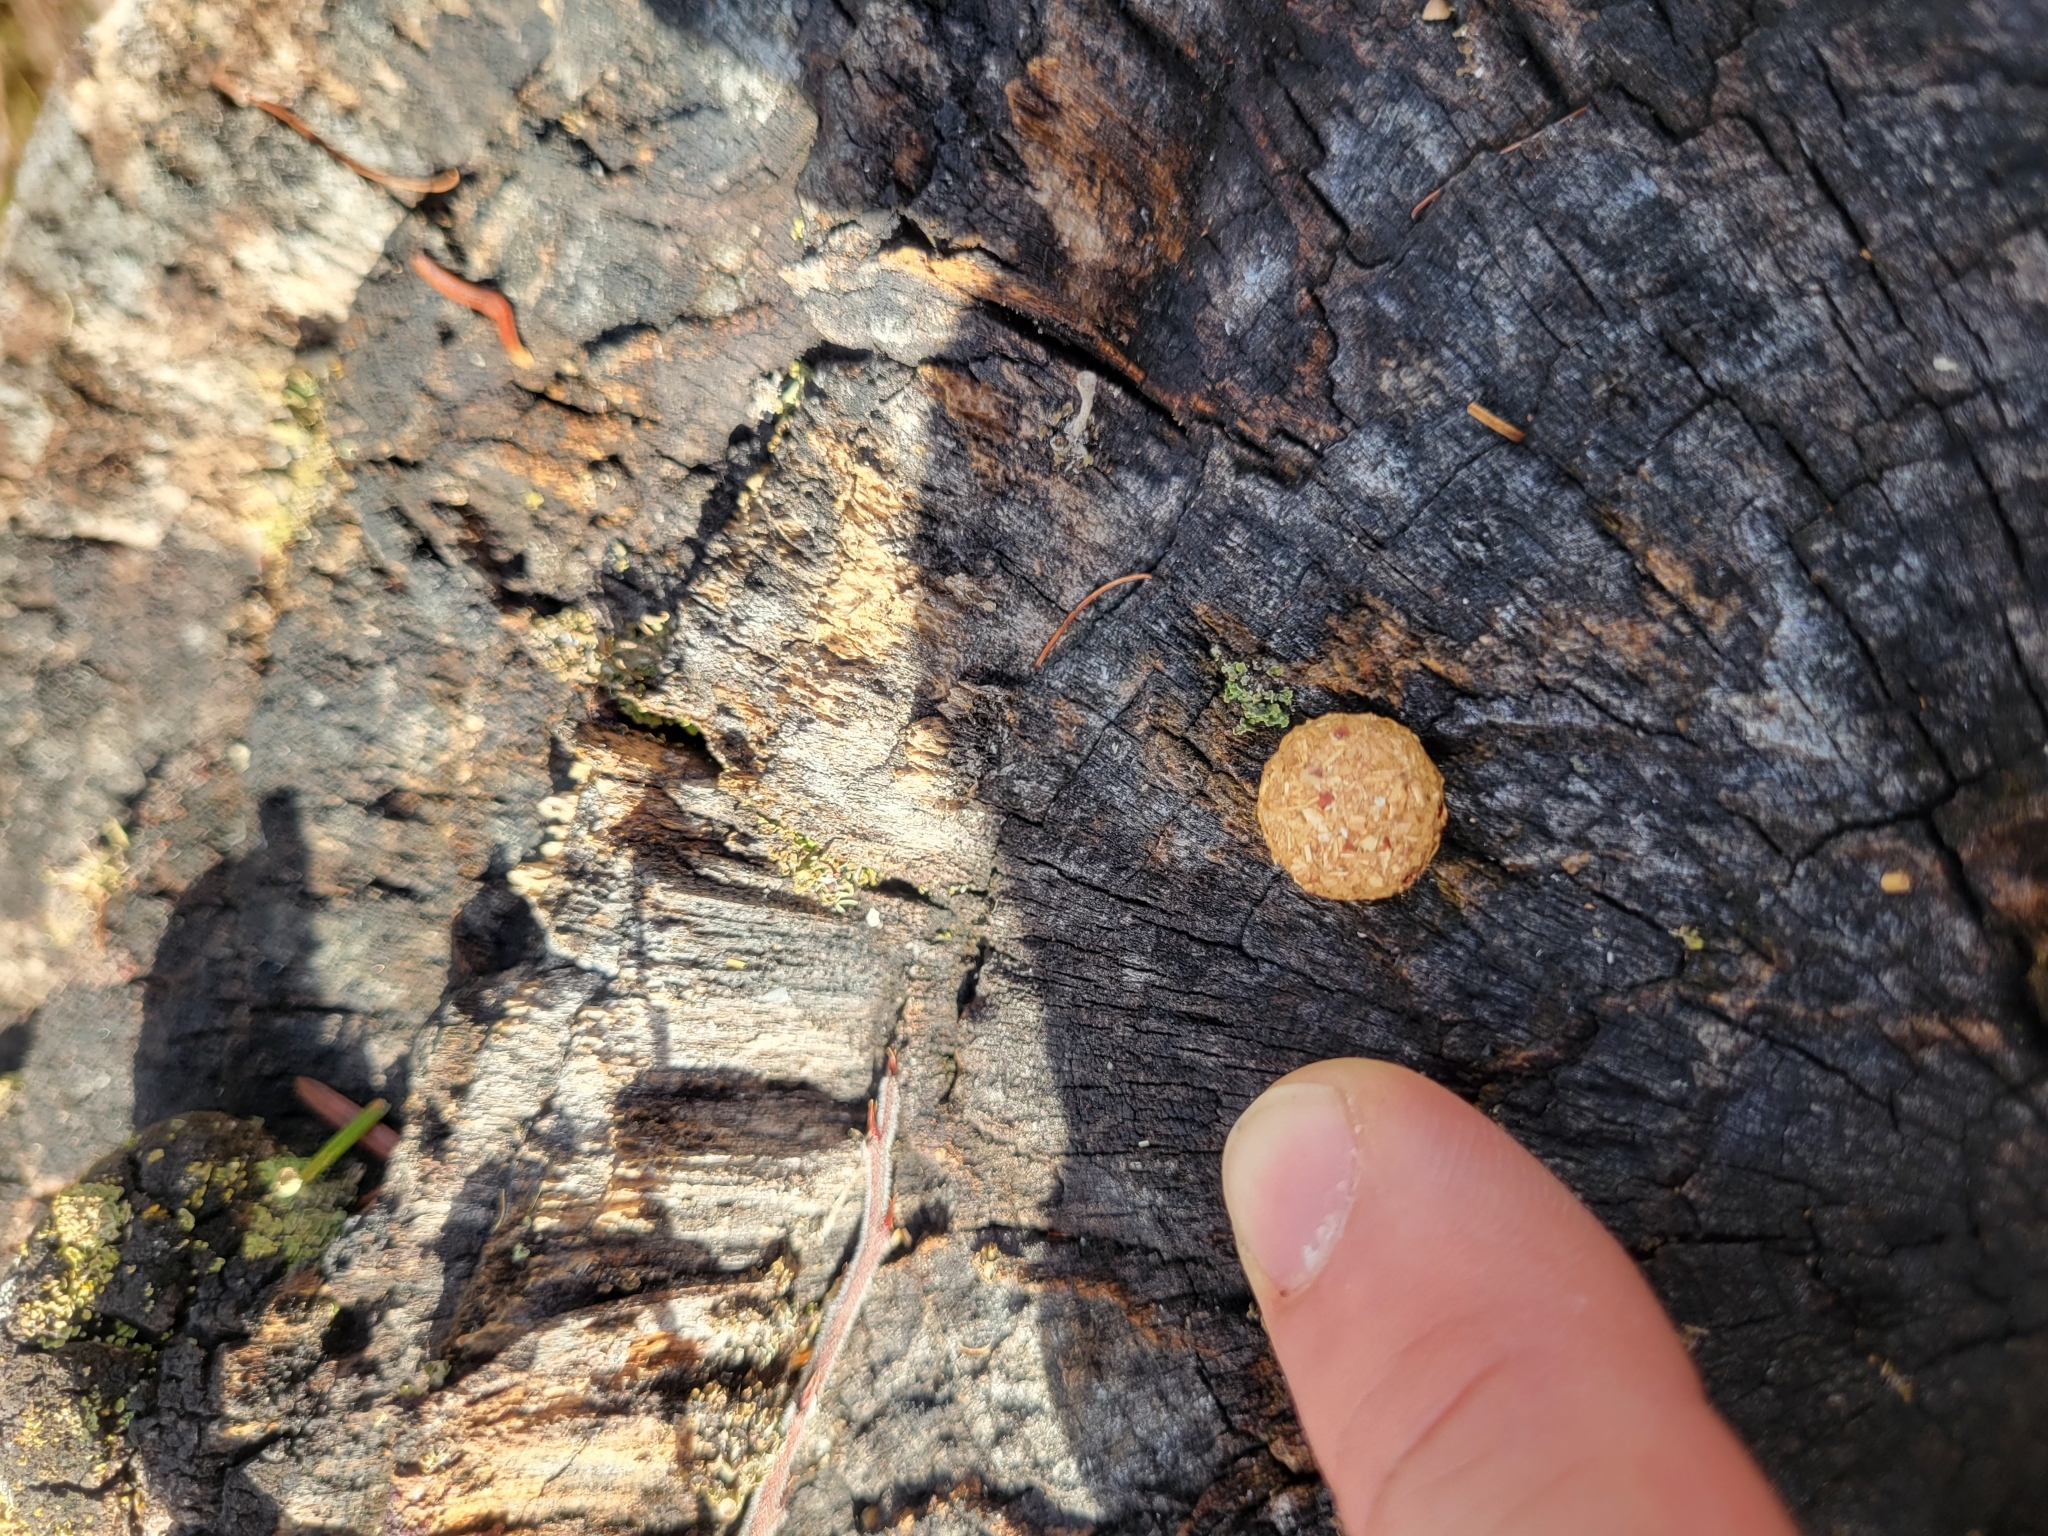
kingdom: Animalia
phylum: Chordata
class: Mammalia
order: Lagomorpha
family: Leporidae
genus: Lepus
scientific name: Lepus americanus
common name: Snowshoe hare
